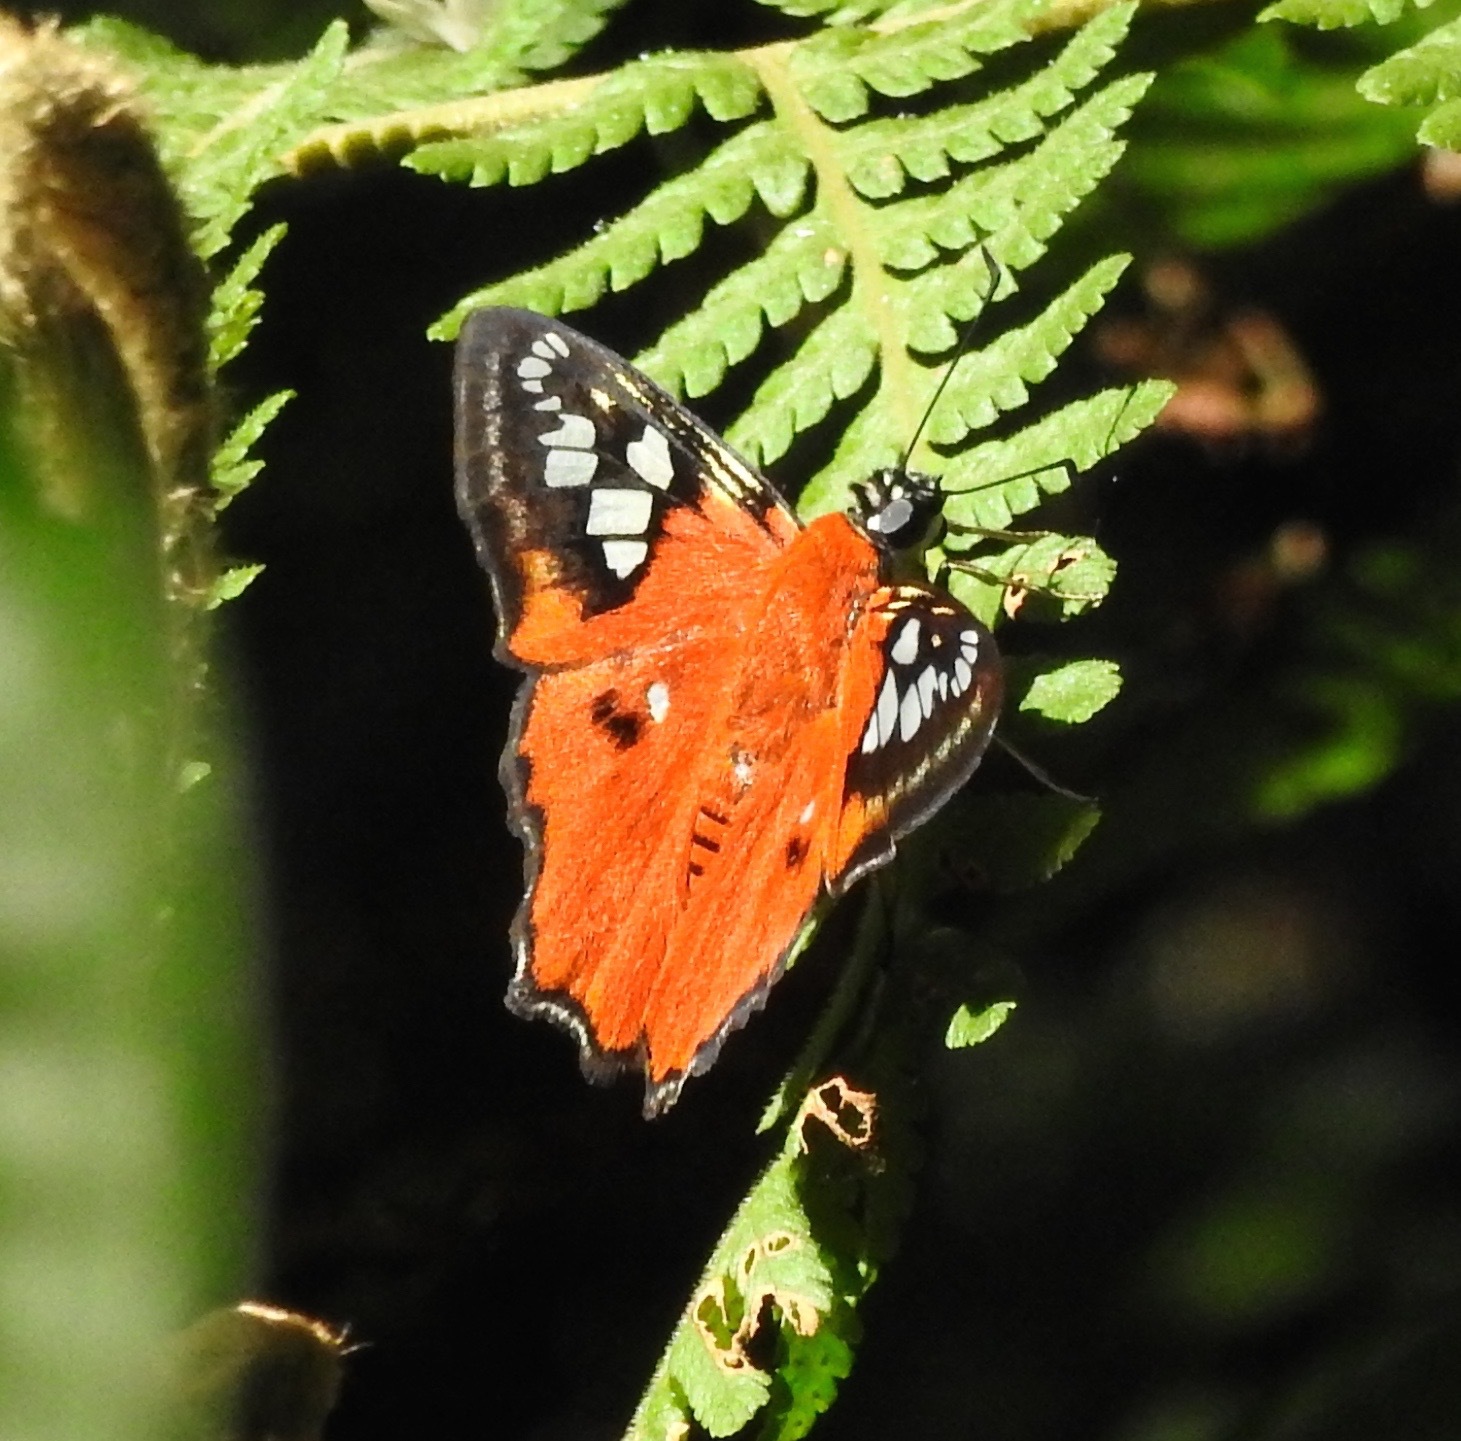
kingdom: Animalia
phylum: Arthropoda
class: Insecta
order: Lepidoptera
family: Hesperiidae
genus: Myscelus
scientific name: Myscelus belti
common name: Belt's myscelus
